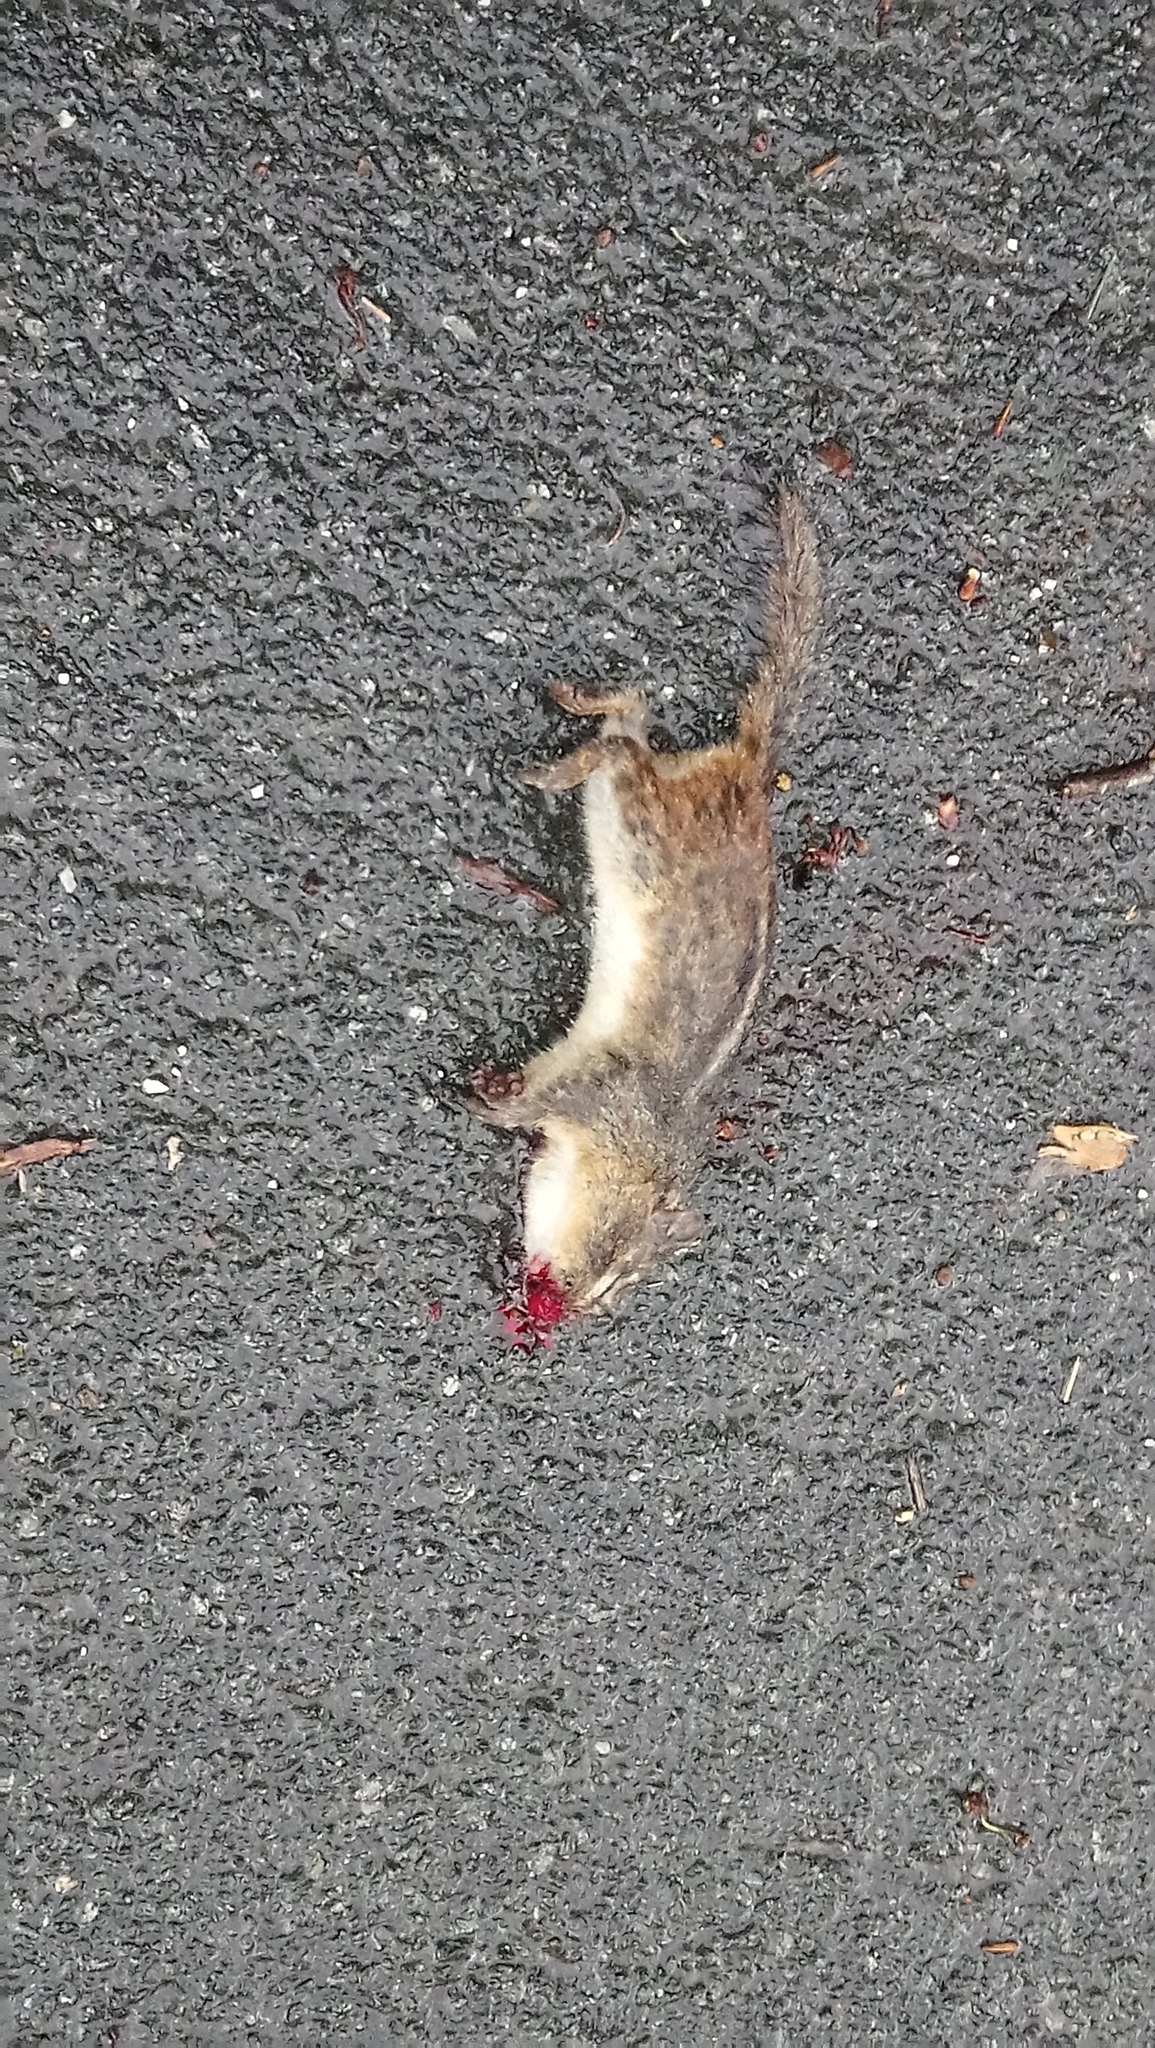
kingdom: Animalia
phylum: Chordata
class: Mammalia
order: Rodentia
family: Sciuridae
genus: Tamias
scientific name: Tamias striatus
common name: Eastern chipmunk
